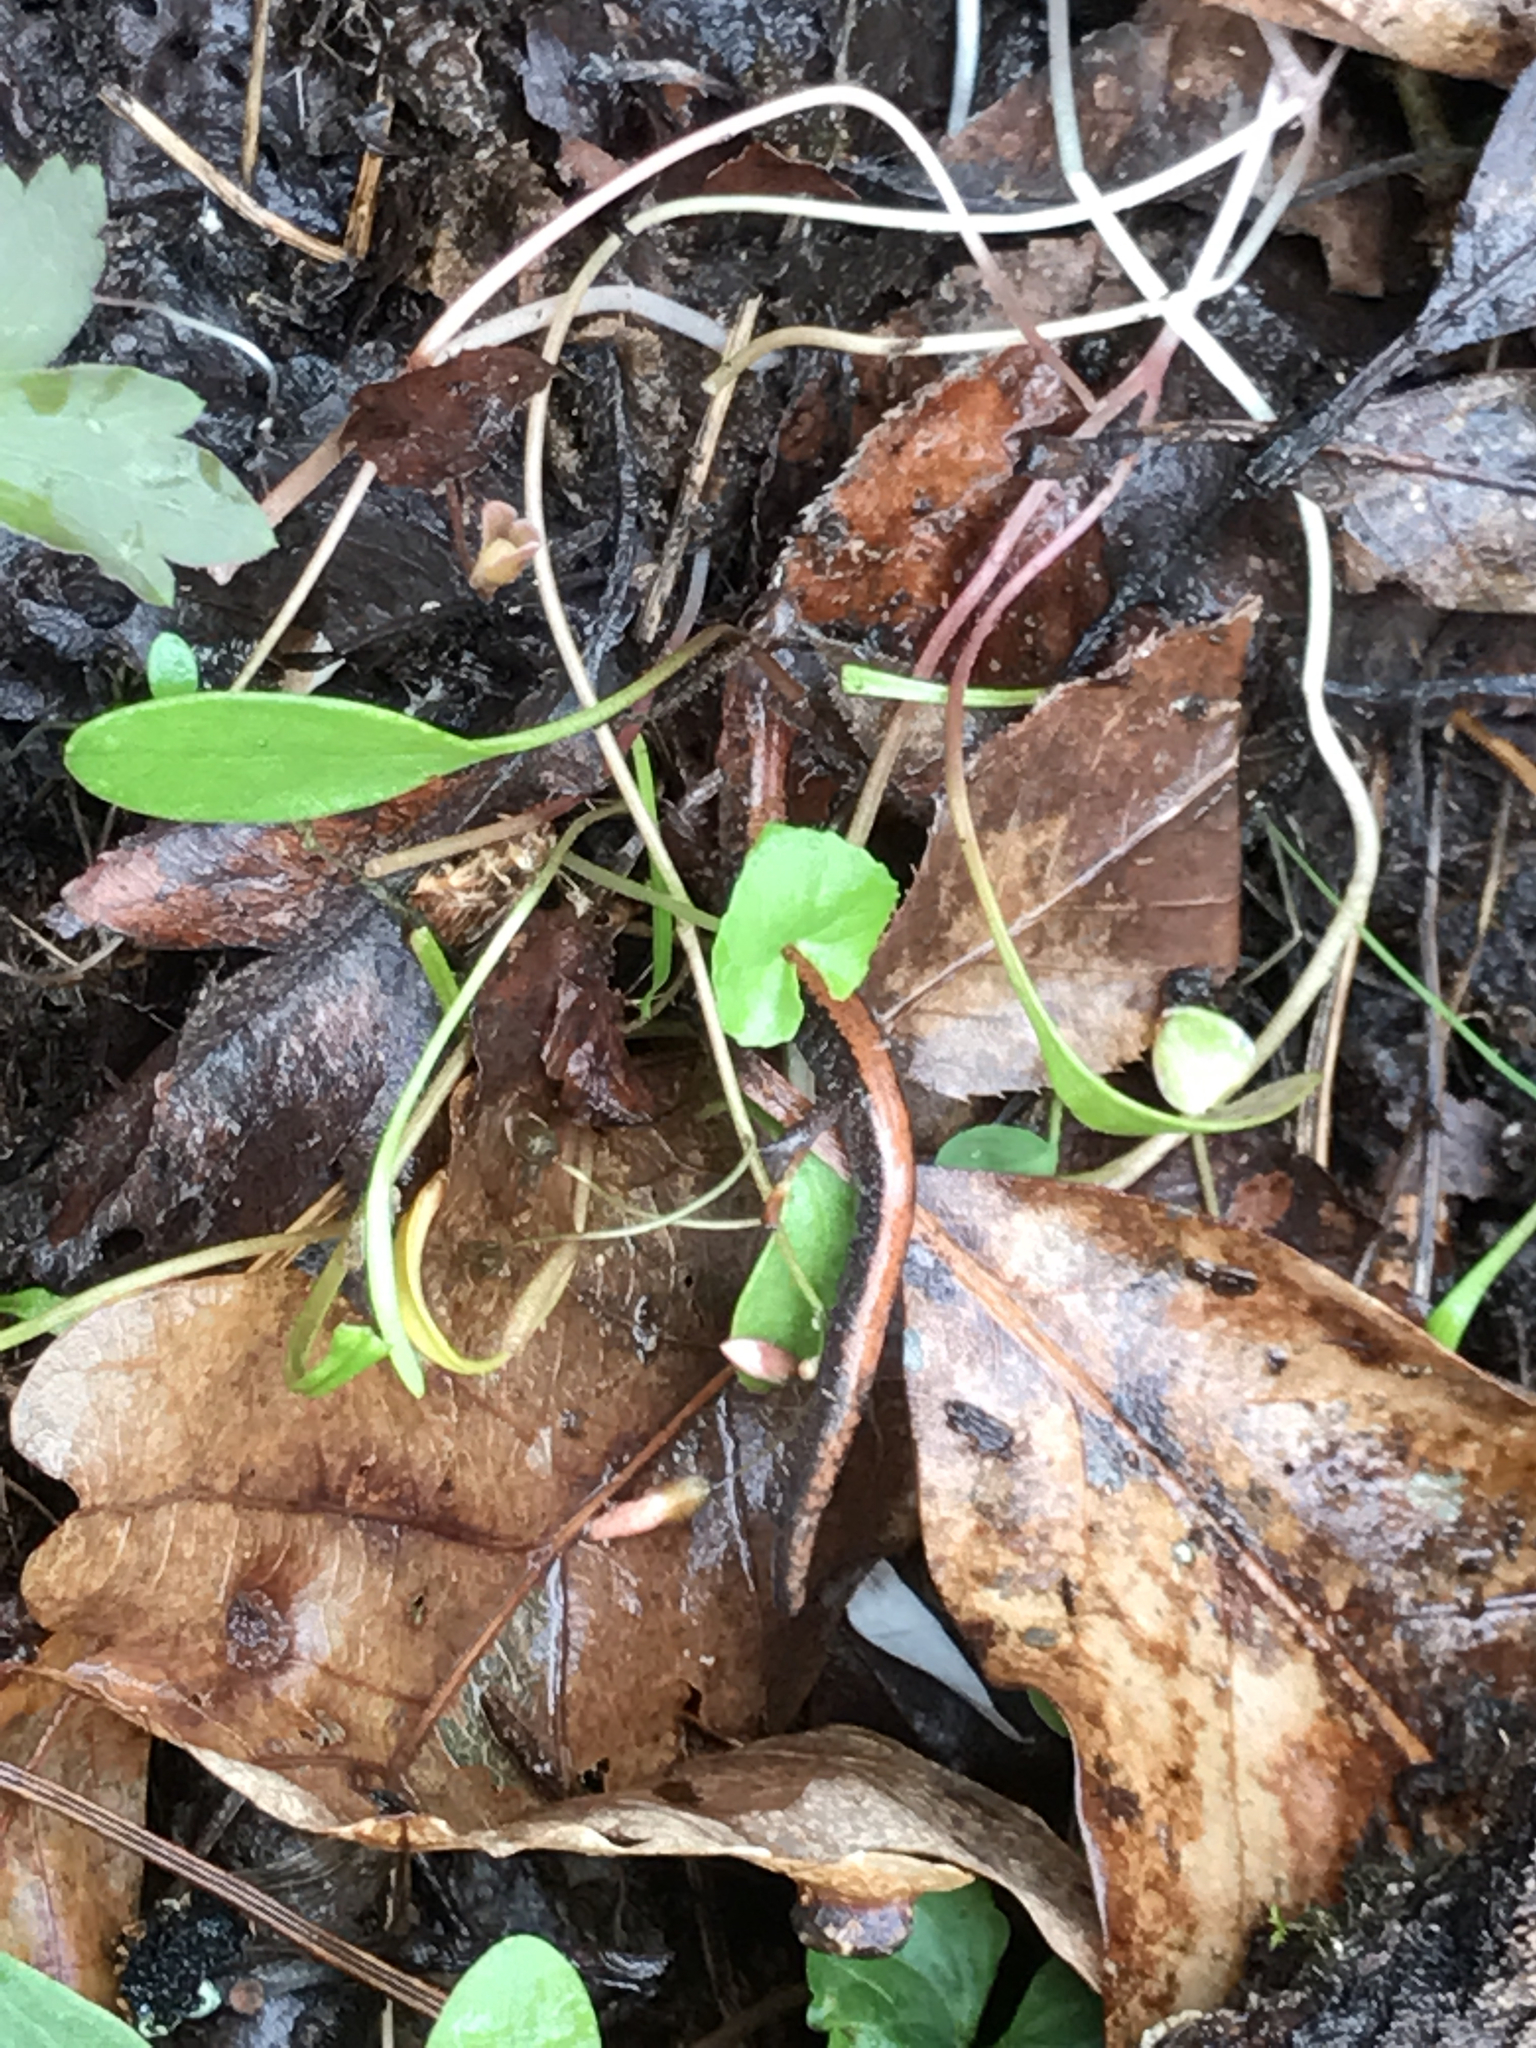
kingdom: Animalia
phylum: Chordata
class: Amphibia
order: Caudata
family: Plethodontidae
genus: Plethodon
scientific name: Plethodon cinereus
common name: Redback salamander
